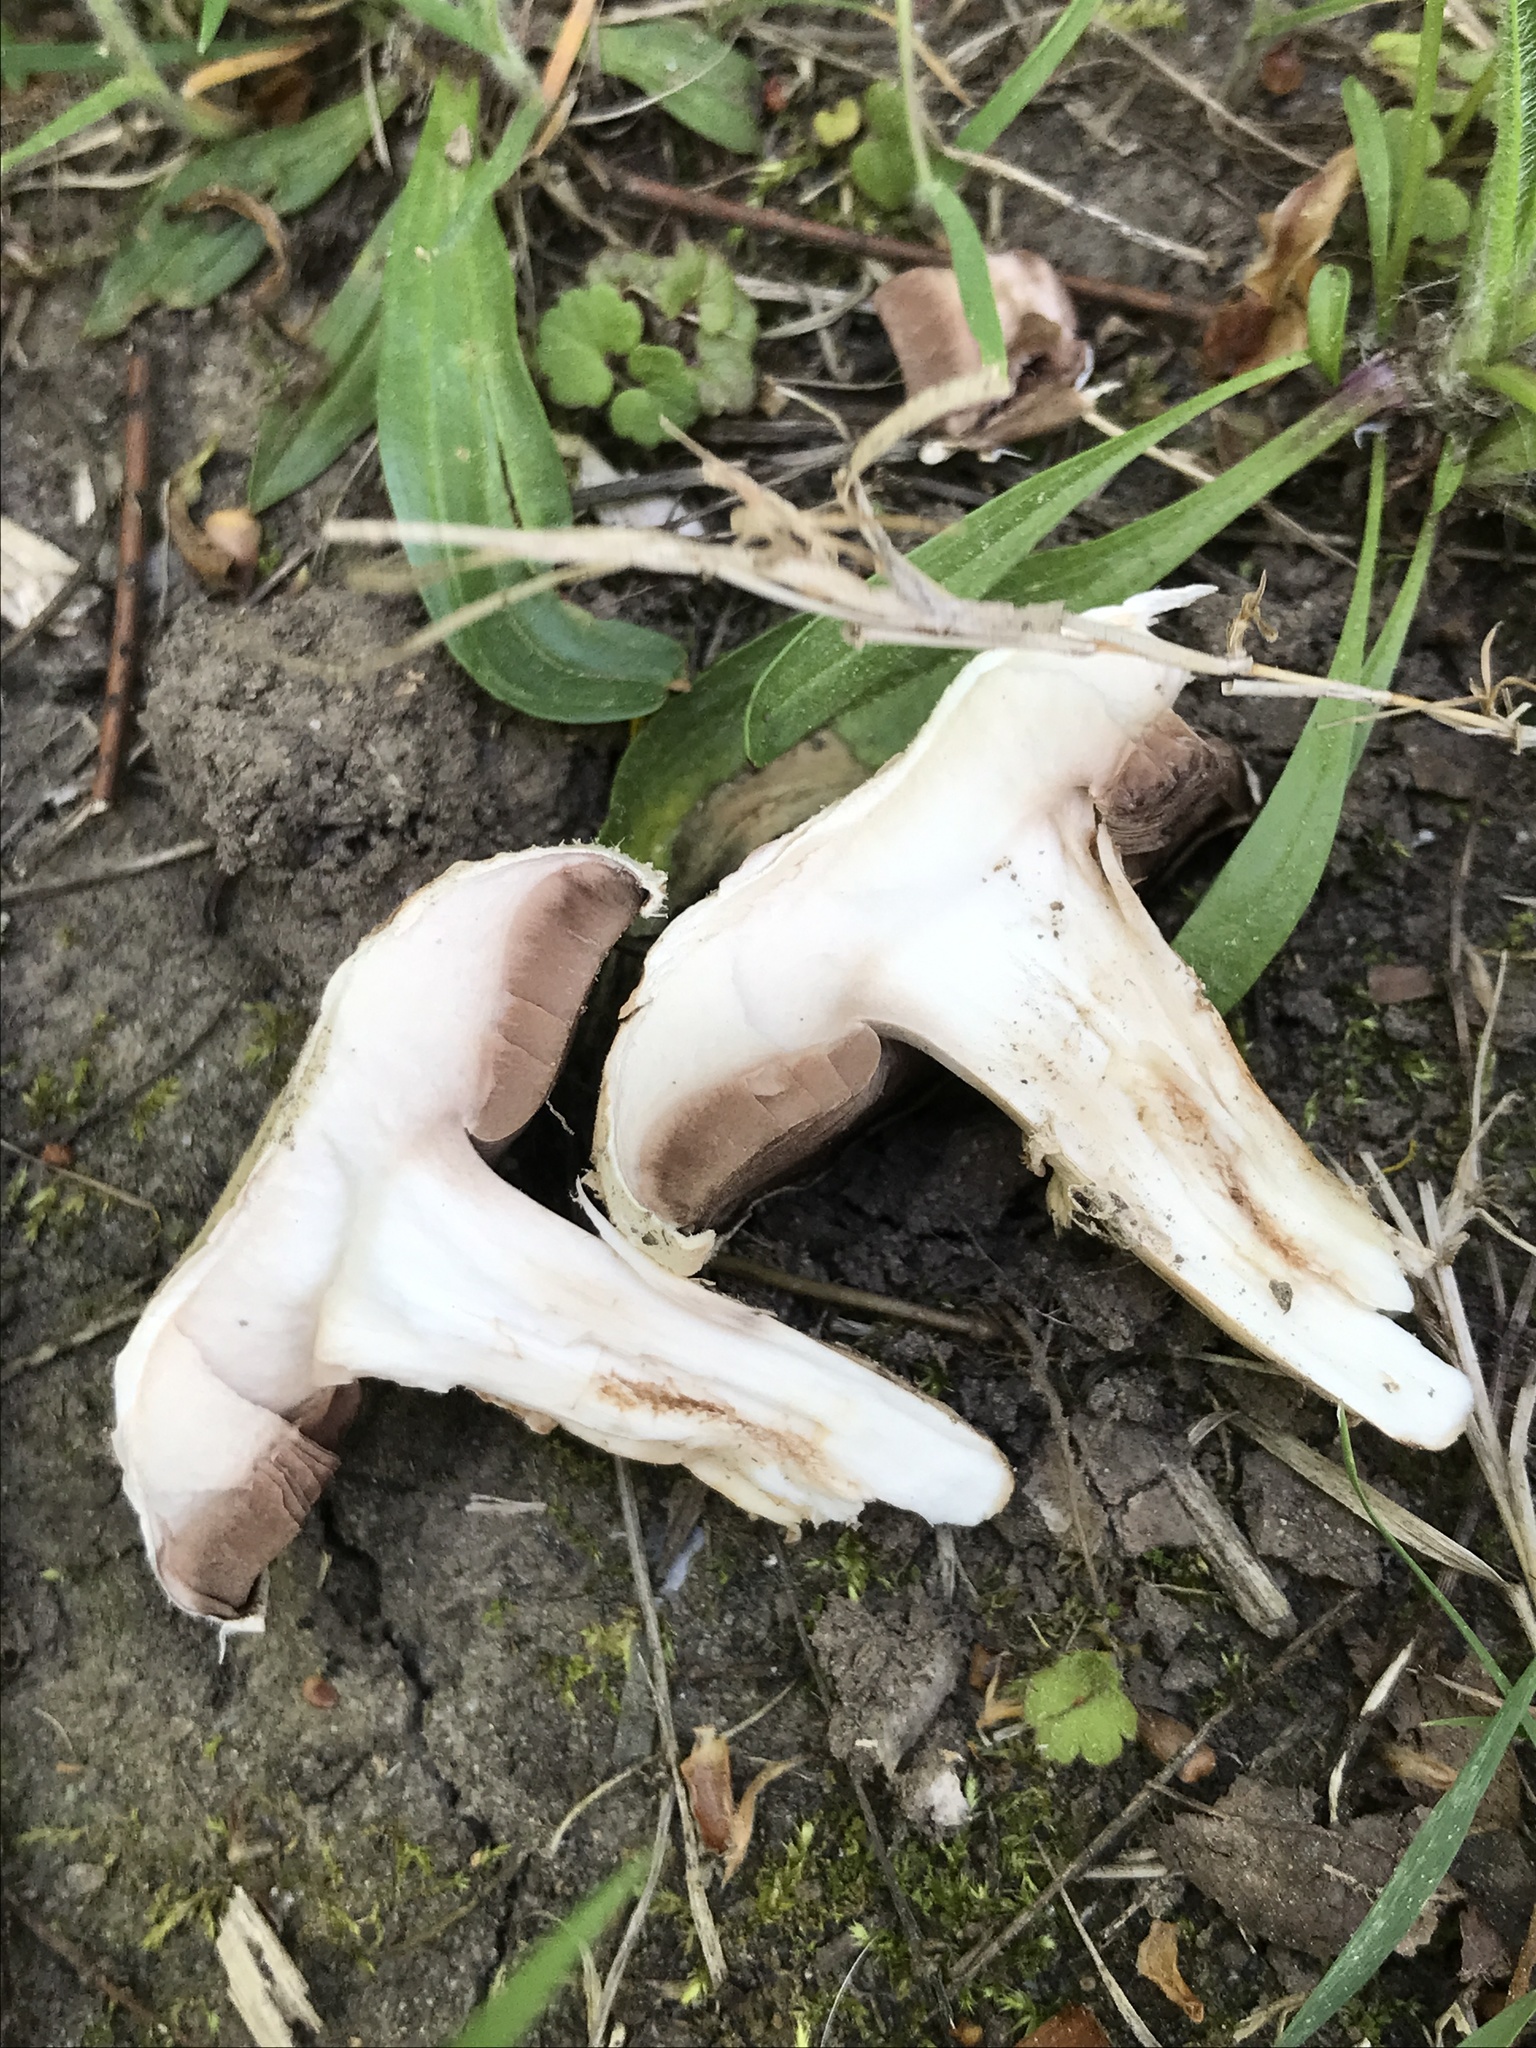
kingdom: Fungi
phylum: Basidiomycota
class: Agaricomycetes
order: Agaricales
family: Agaricaceae
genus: Agaricus
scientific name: Agaricus bitorquis
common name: Pavement mushroom
